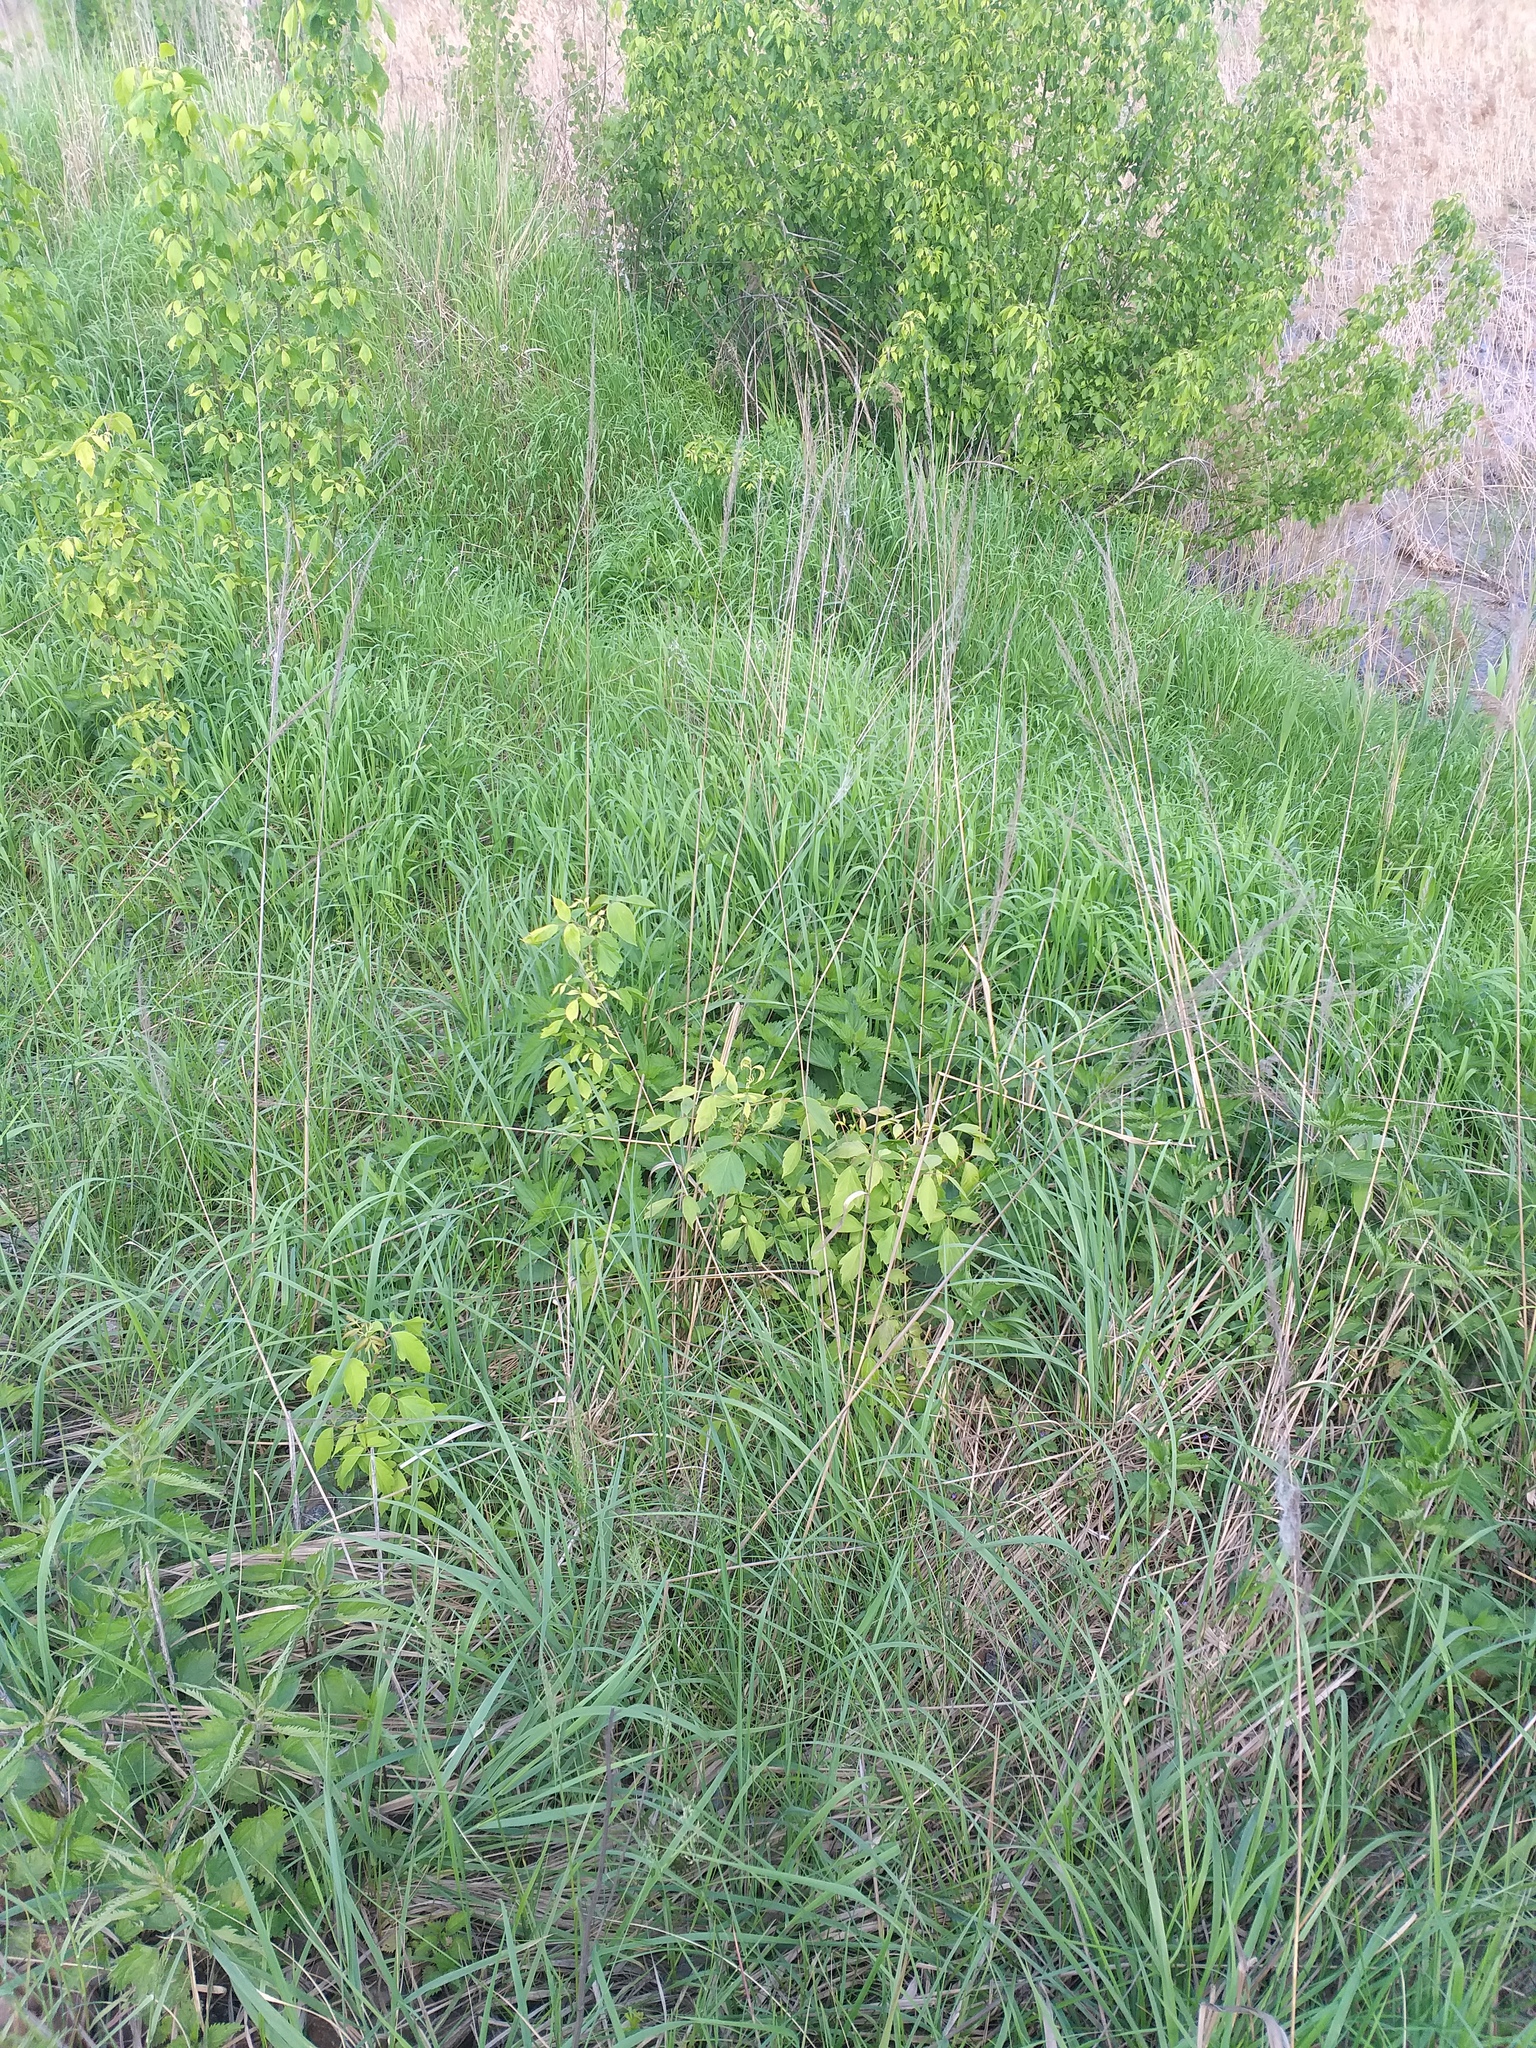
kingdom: Plantae
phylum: Tracheophyta
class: Magnoliopsida
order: Sapindales
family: Sapindaceae
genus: Acer
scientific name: Acer negundo
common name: Ashleaf maple
